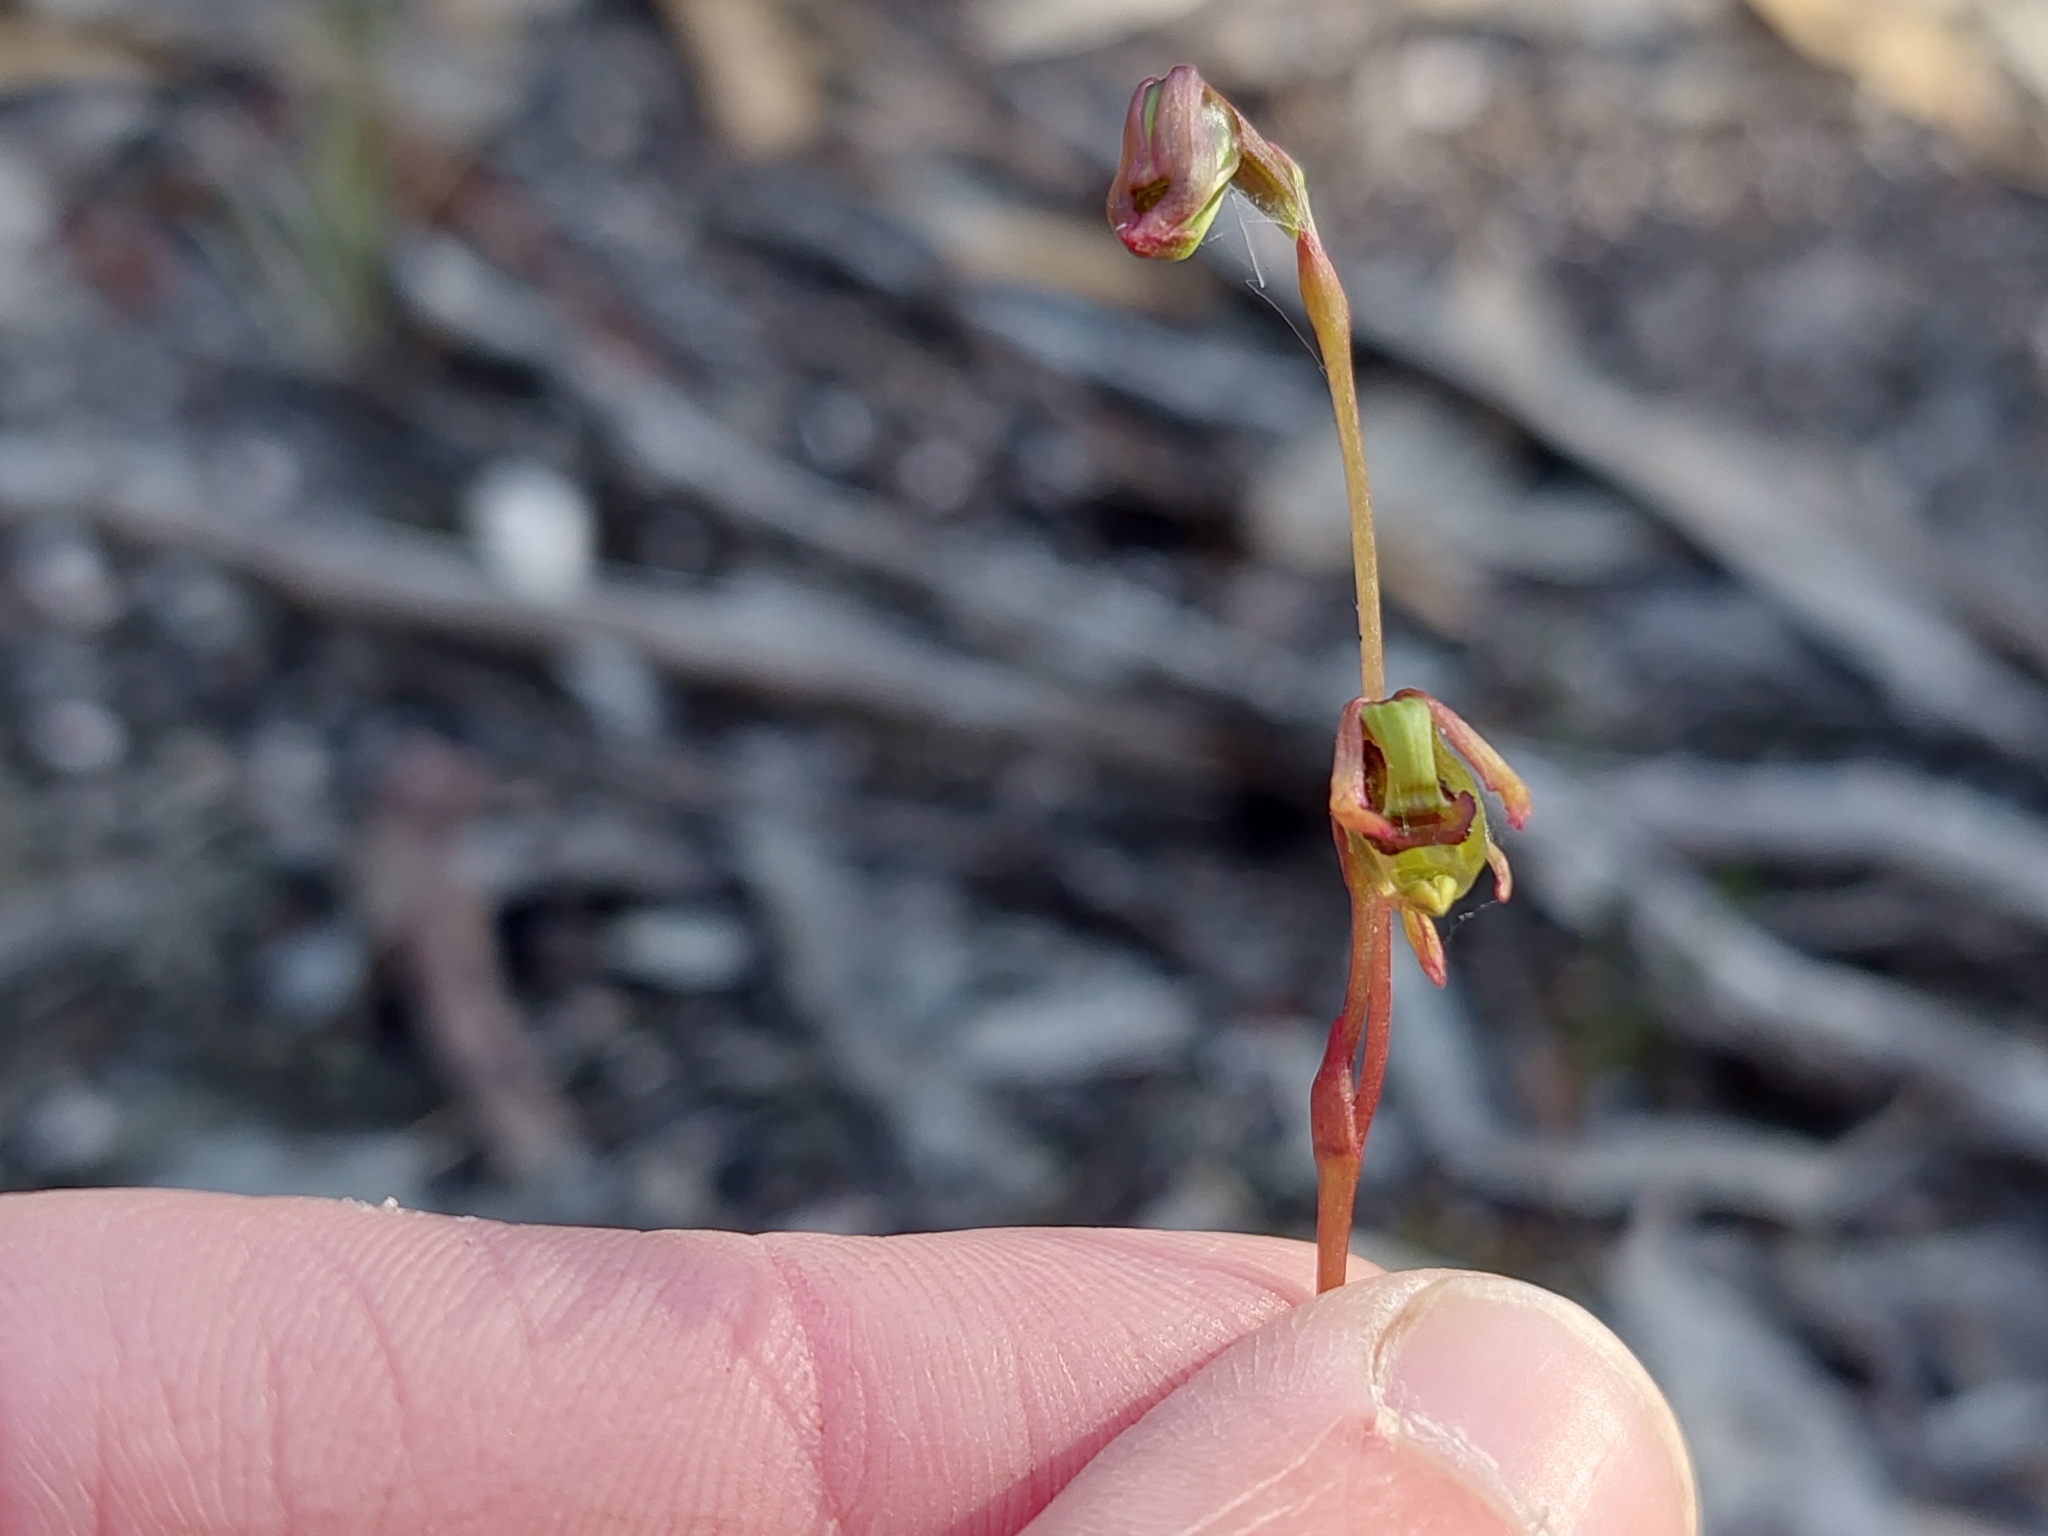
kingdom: Plantae
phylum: Tracheophyta
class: Liliopsida
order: Asparagales
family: Orchidaceae
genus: Caleana
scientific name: Caleana minor
